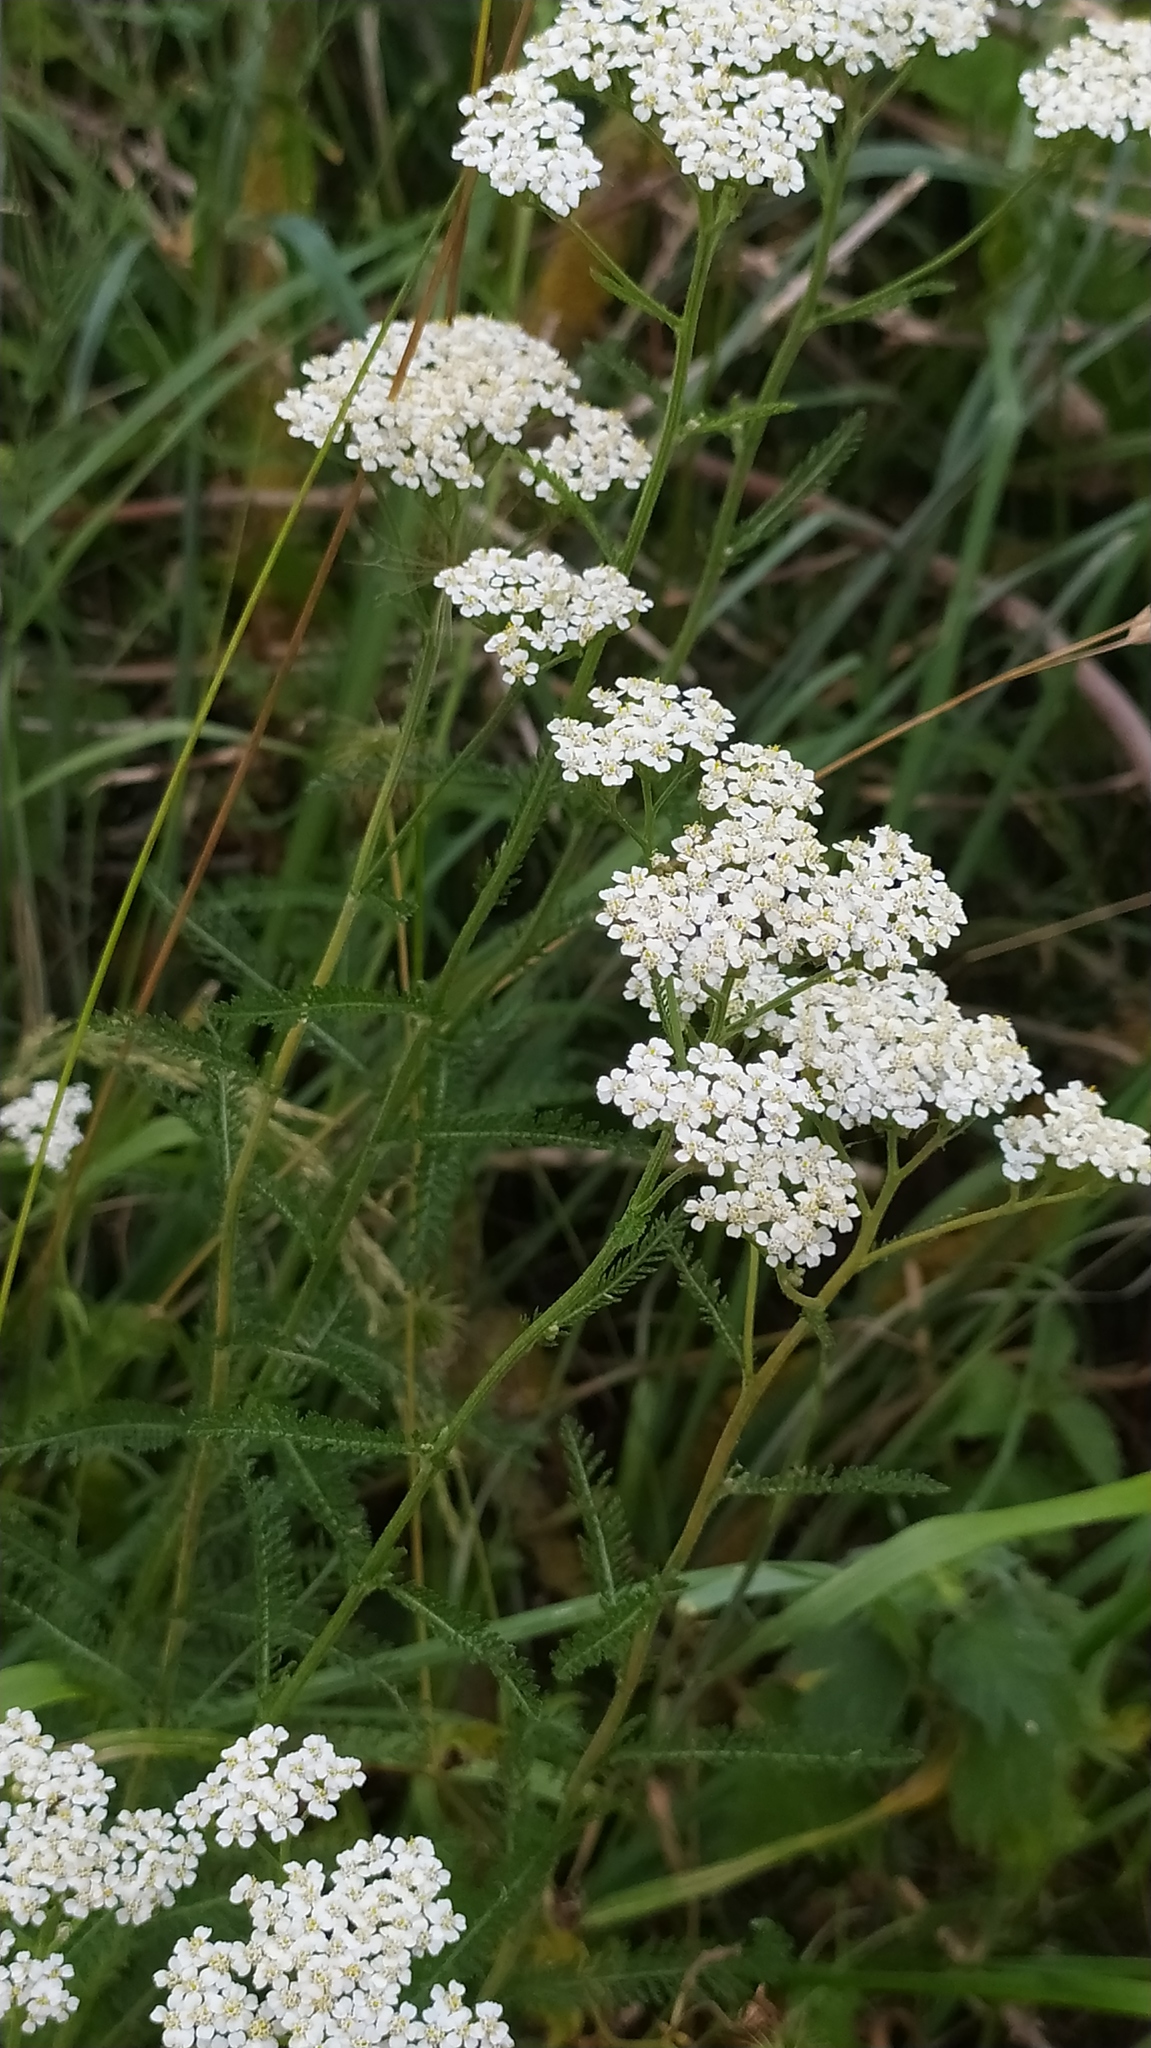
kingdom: Plantae
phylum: Tracheophyta
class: Magnoliopsida
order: Asterales
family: Asteraceae
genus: Achillea
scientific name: Achillea millefolium
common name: Yarrow
